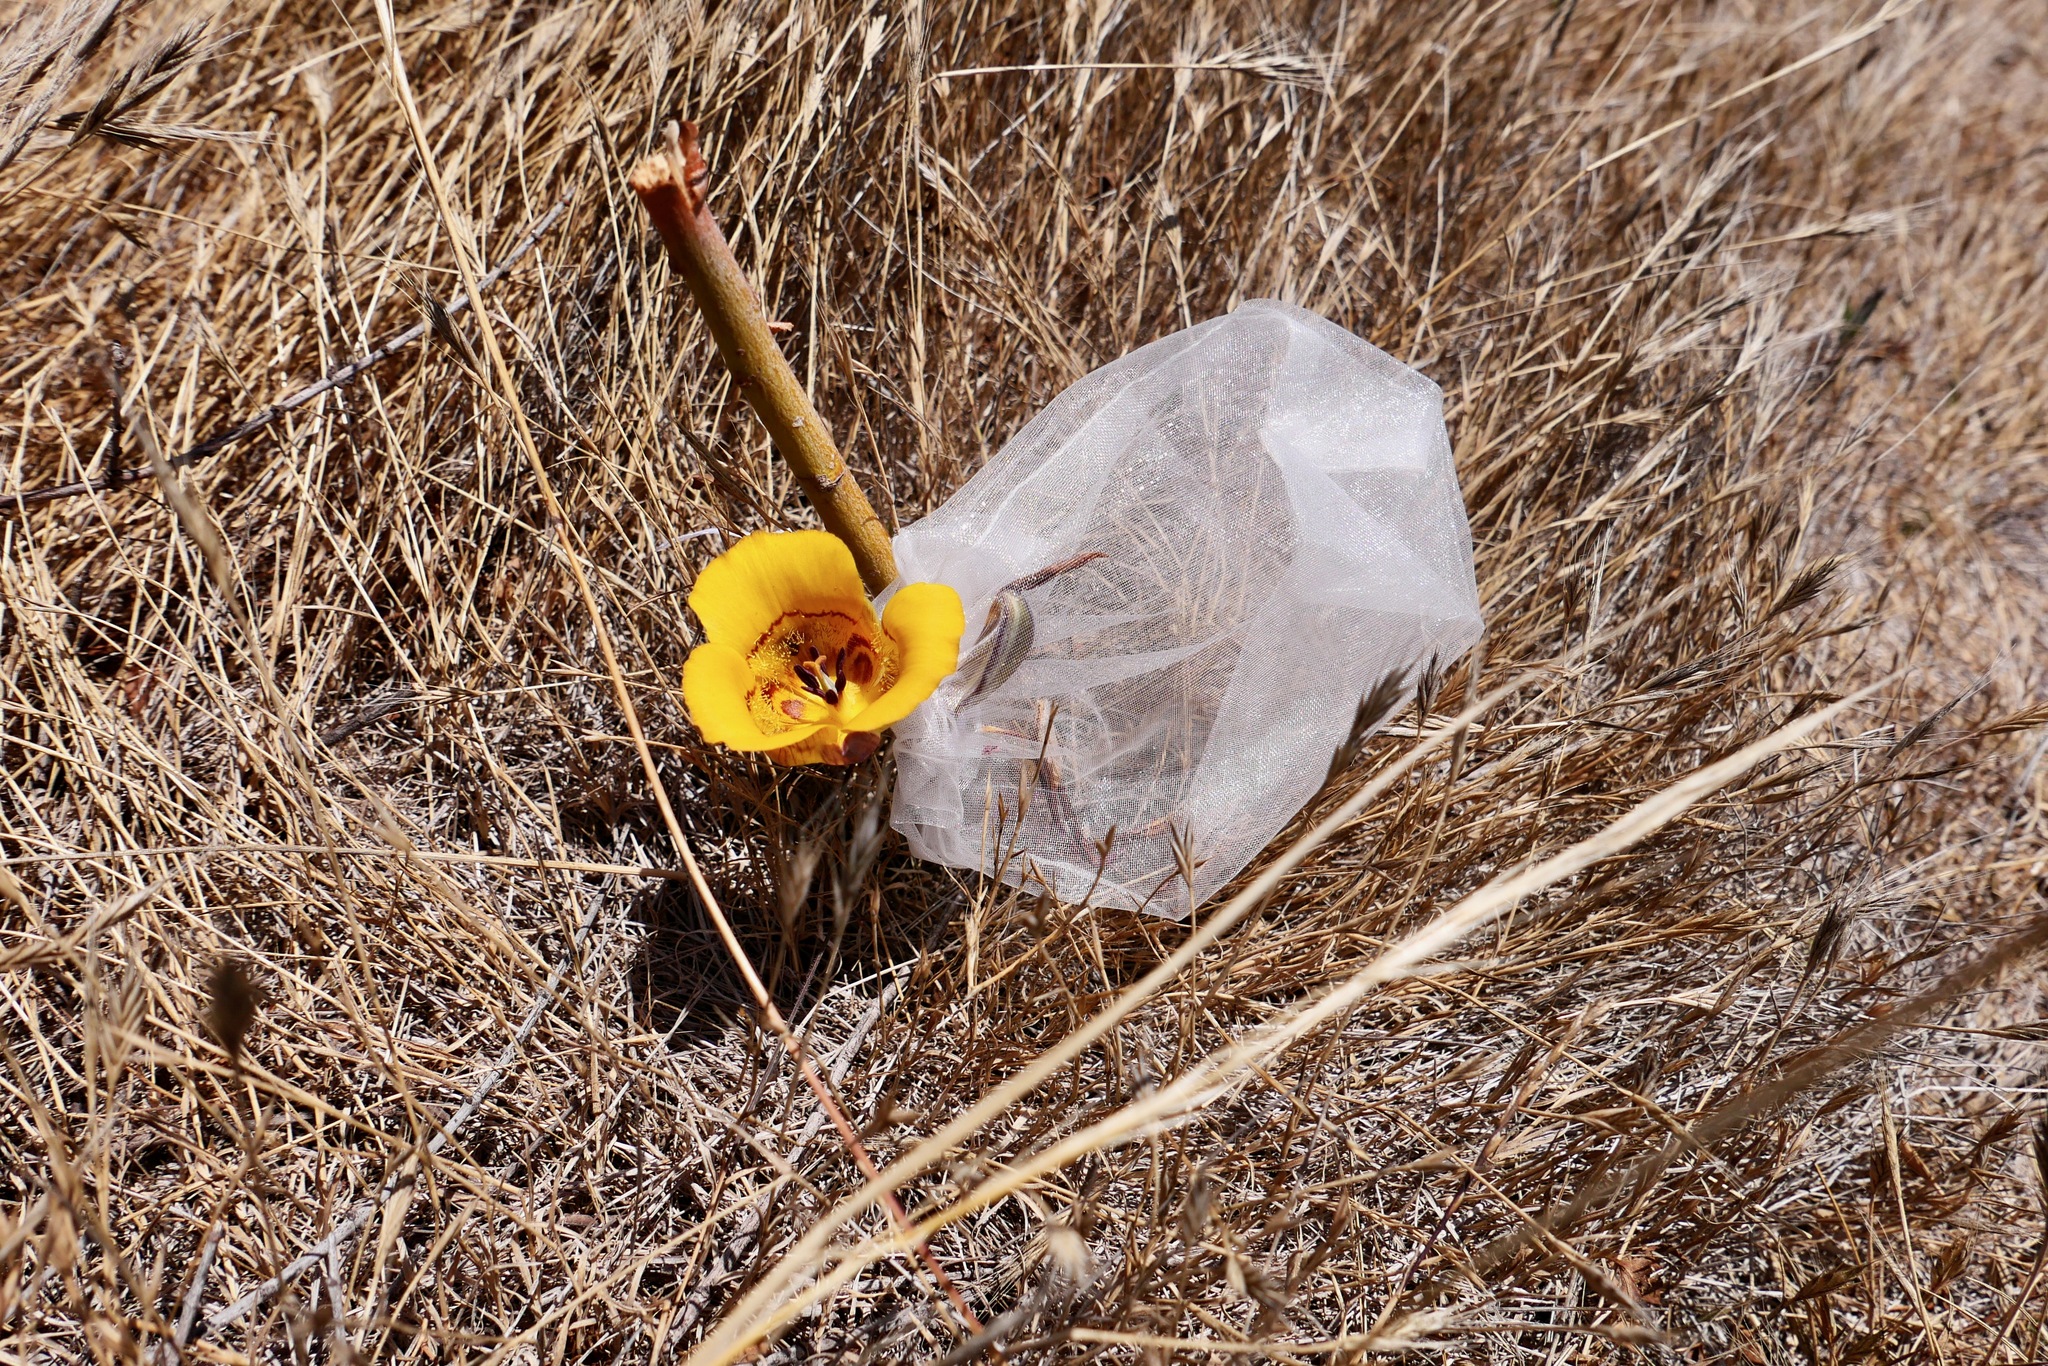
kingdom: Plantae
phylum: Tracheophyta
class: Liliopsida
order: Liliales
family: Liliaceae
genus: Calochortus
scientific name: Calochortus clavatus
